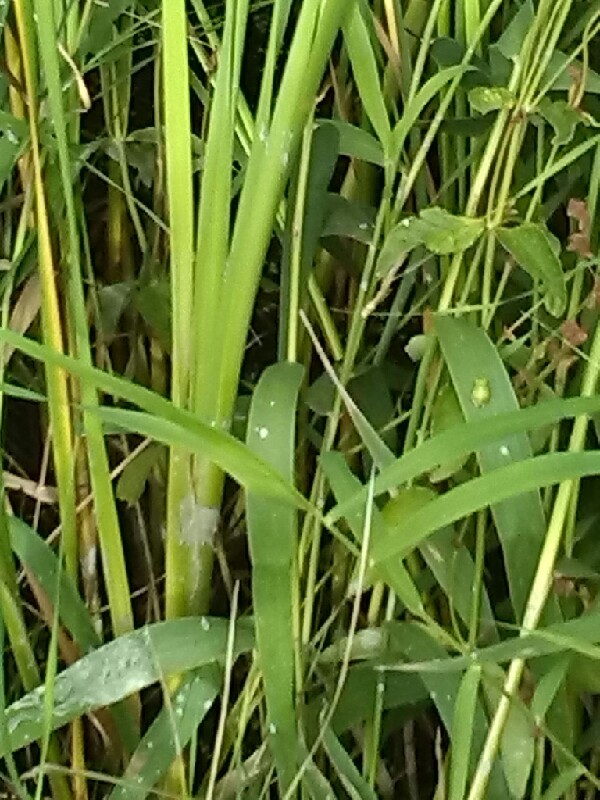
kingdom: Animalia
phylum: Chordata
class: Amphibia
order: Anura
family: Hylidae
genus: Hyla
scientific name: Hyla meridionalis
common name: Stripeless tree frog
